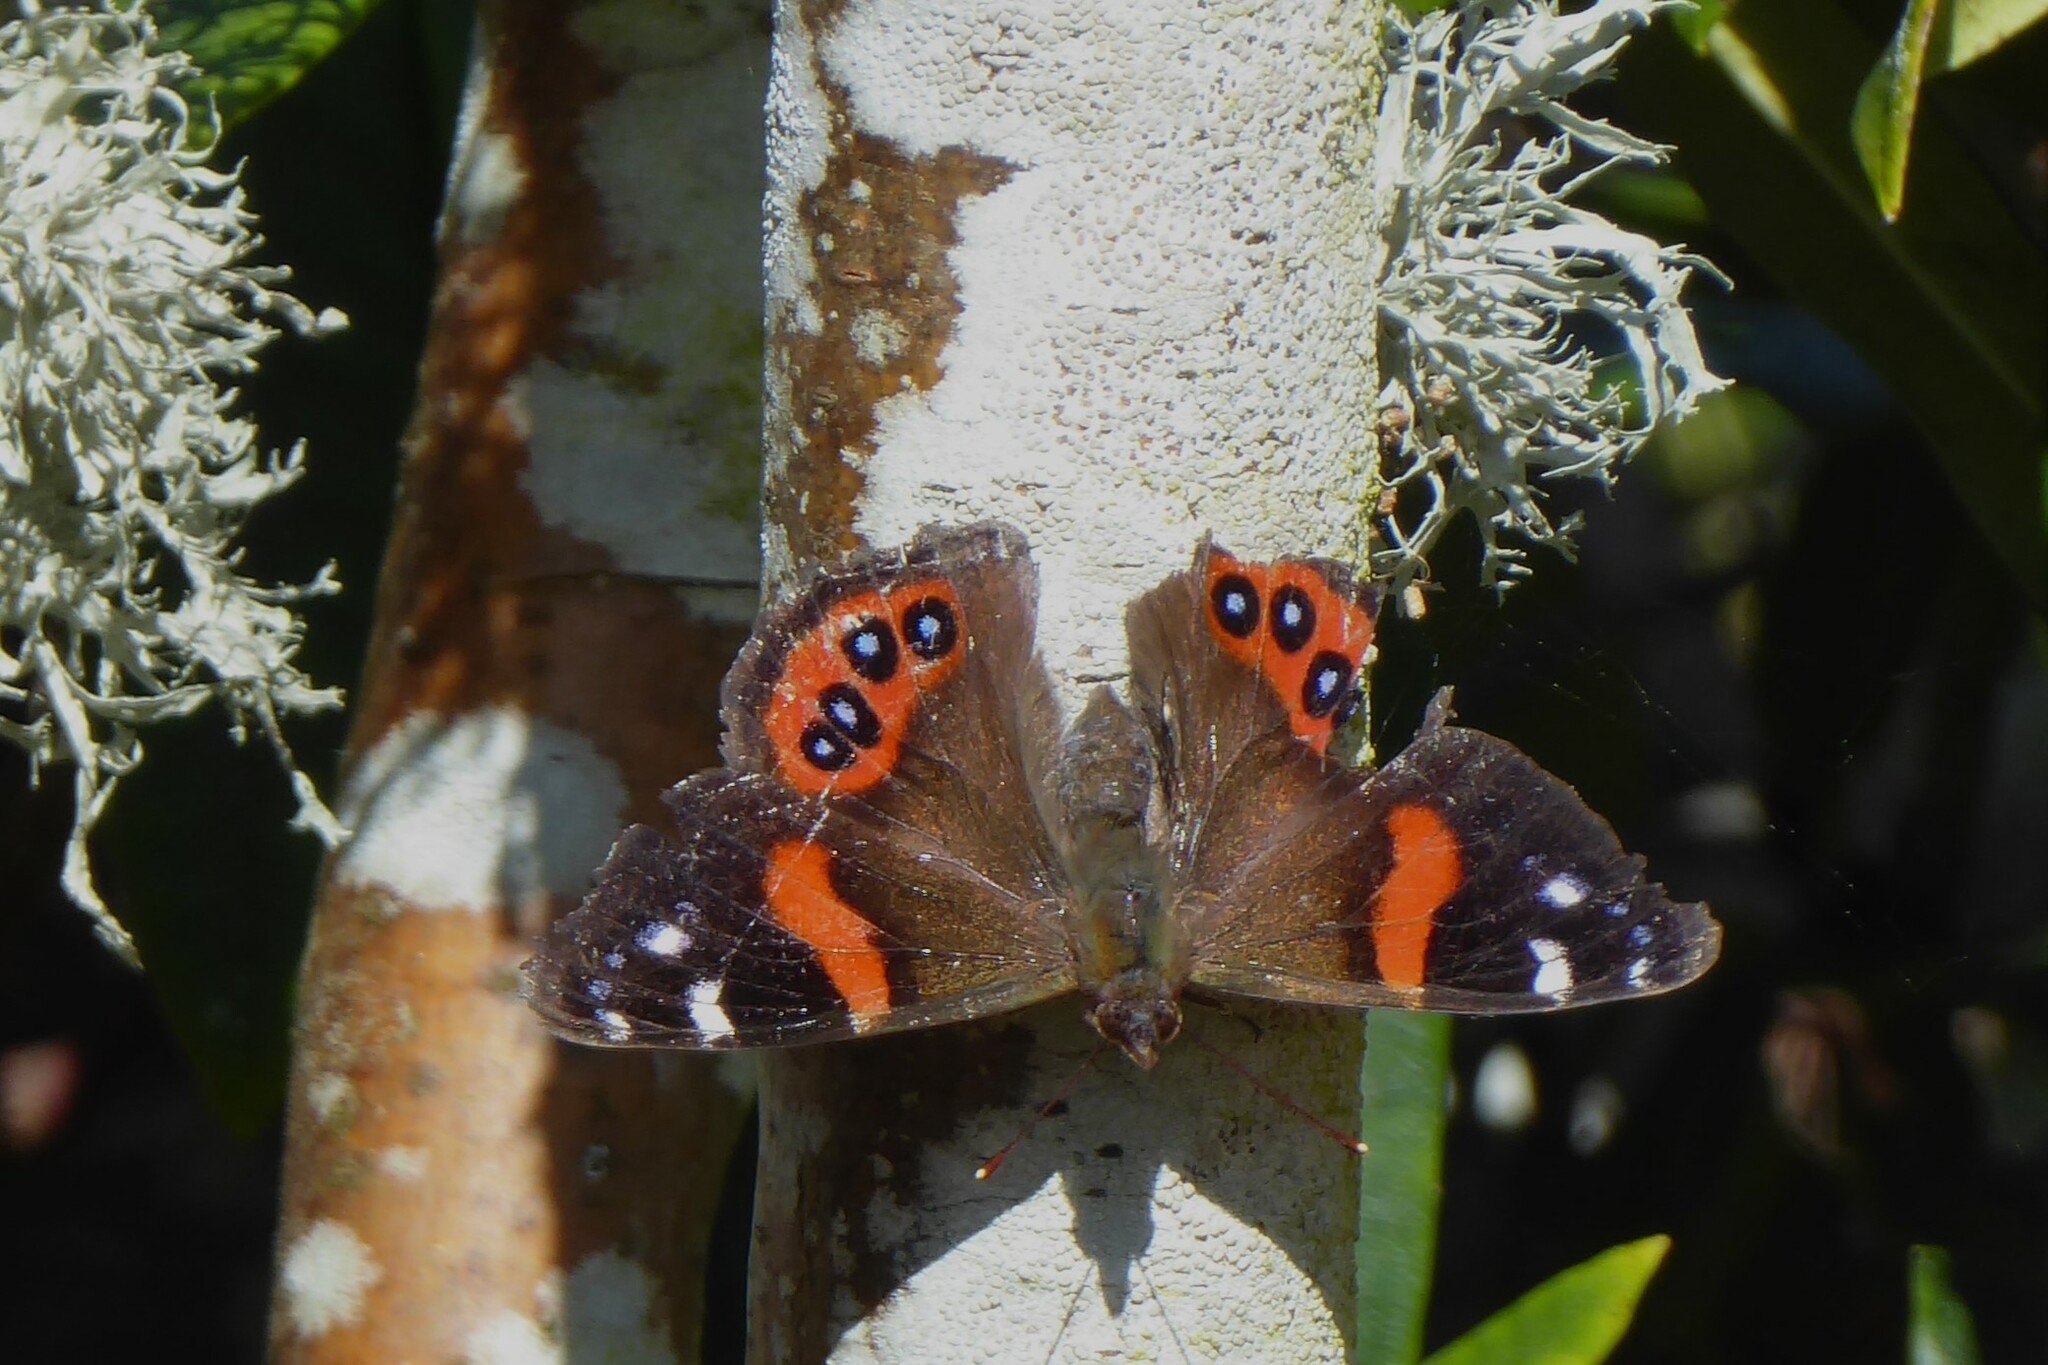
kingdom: Animalia
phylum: Arthropoda
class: Insecta
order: Lepidoptera
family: Nymphalidae
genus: Vanessa
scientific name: Vanessa gonerilla
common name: New zealand red admiral
